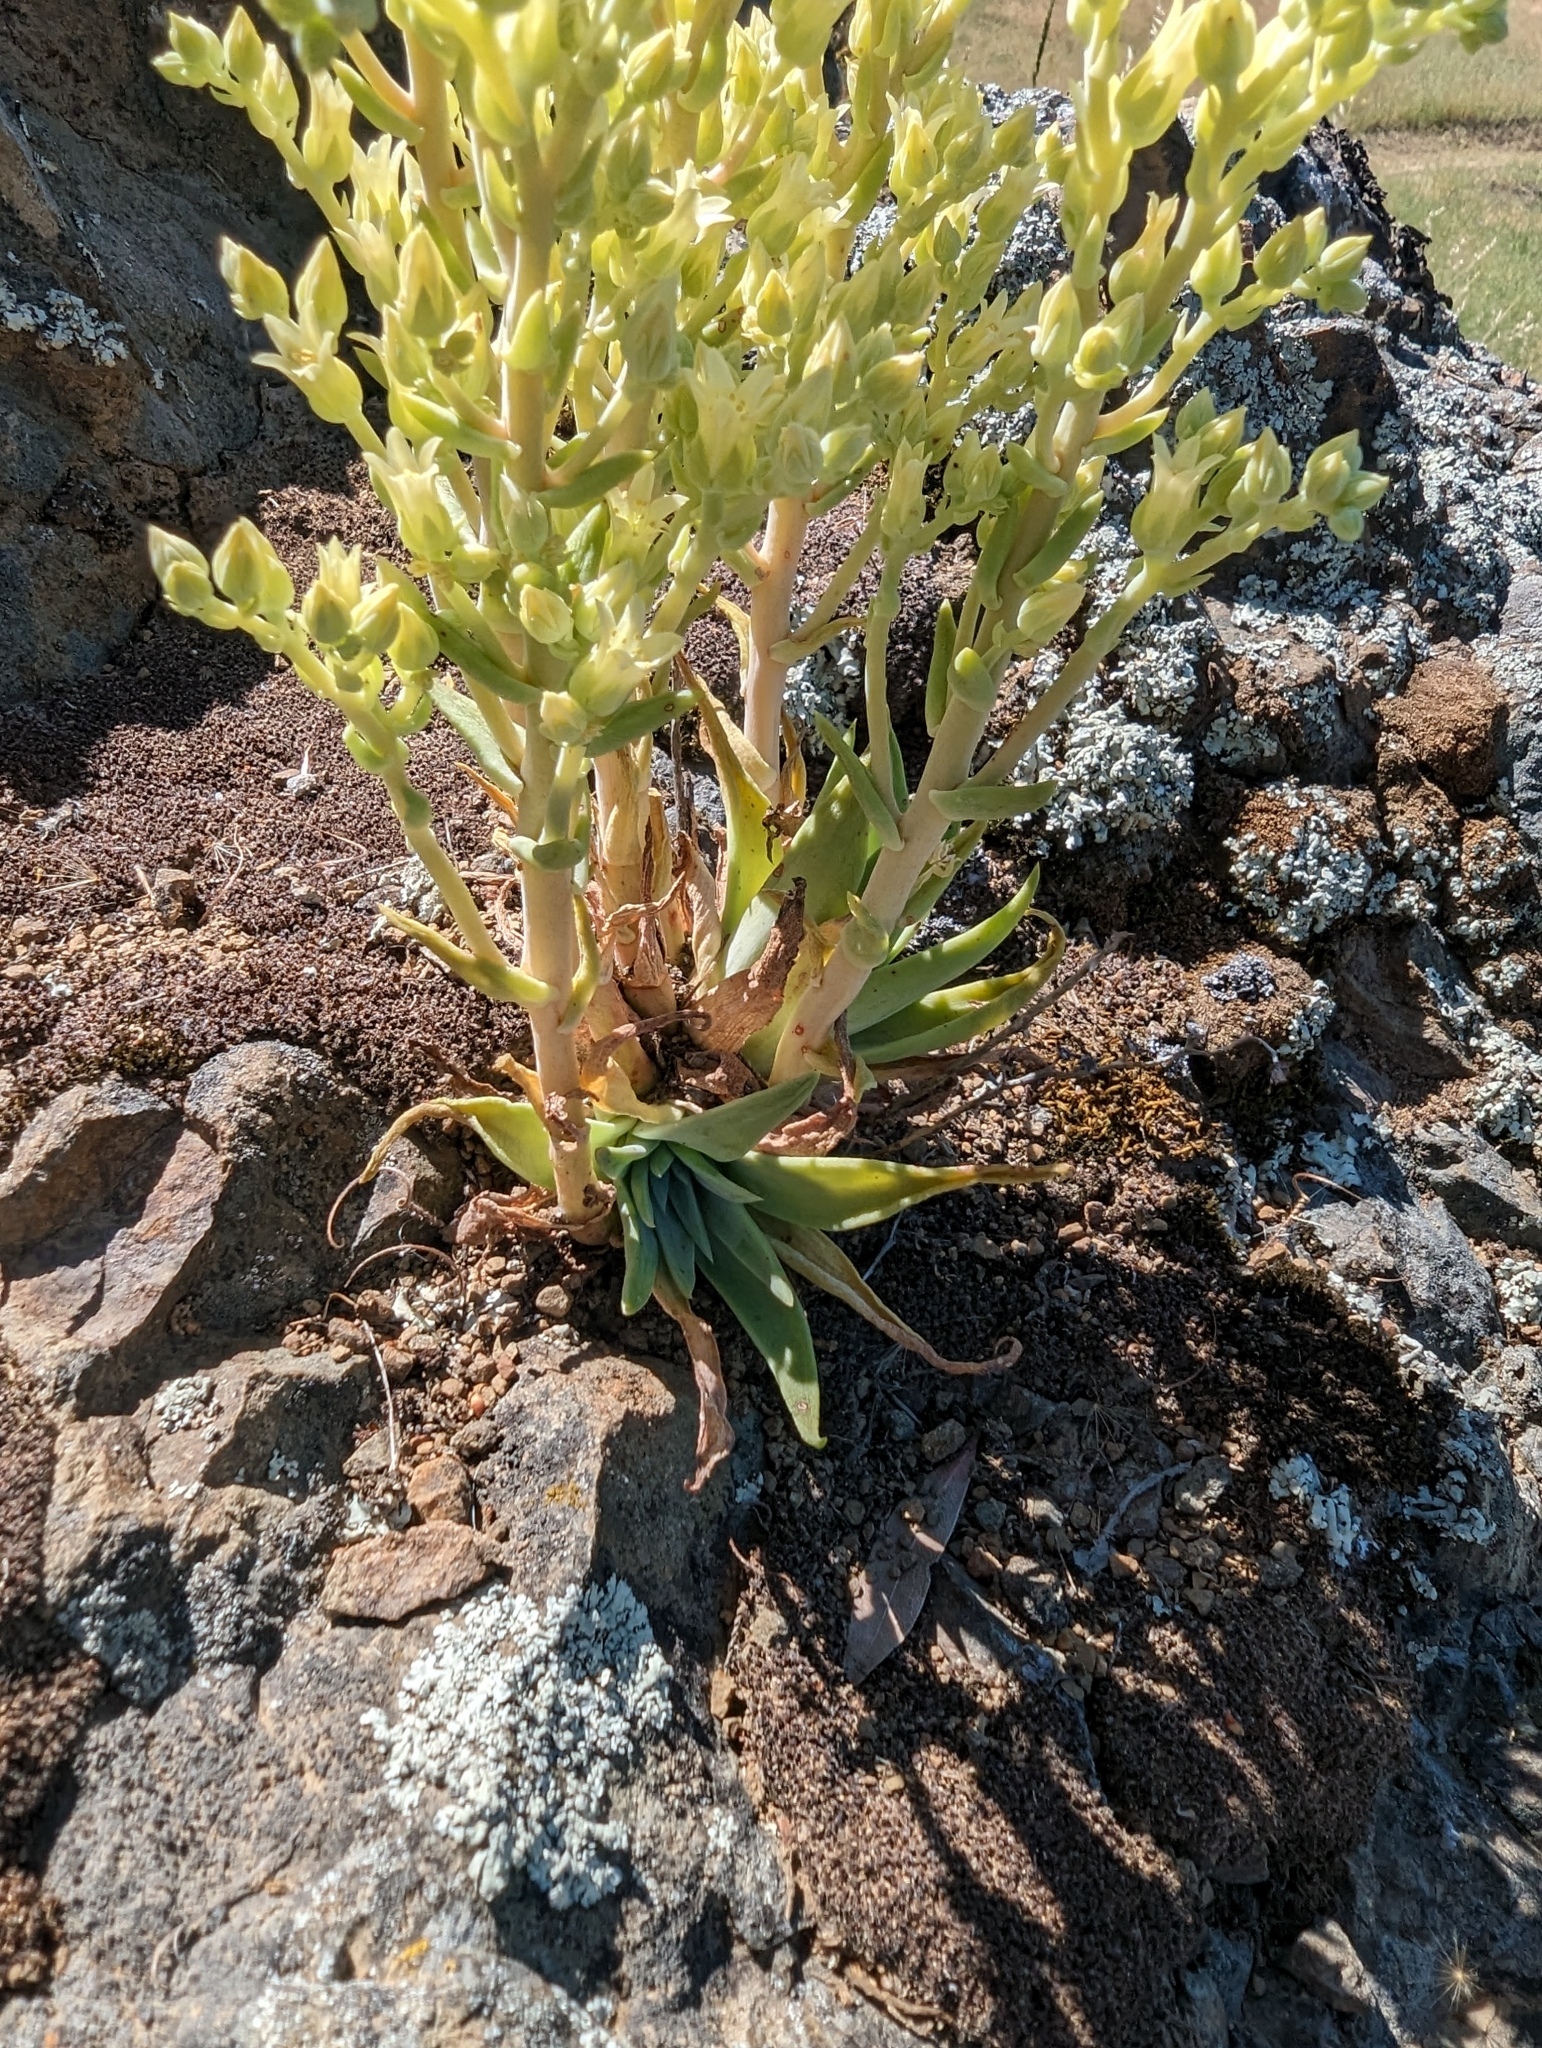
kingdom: Plantae
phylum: Tracheophyta
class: Magnoliopsida
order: Saxifragales
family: Crassulaceae
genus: Dudleya
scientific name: Dudleya abramsii
